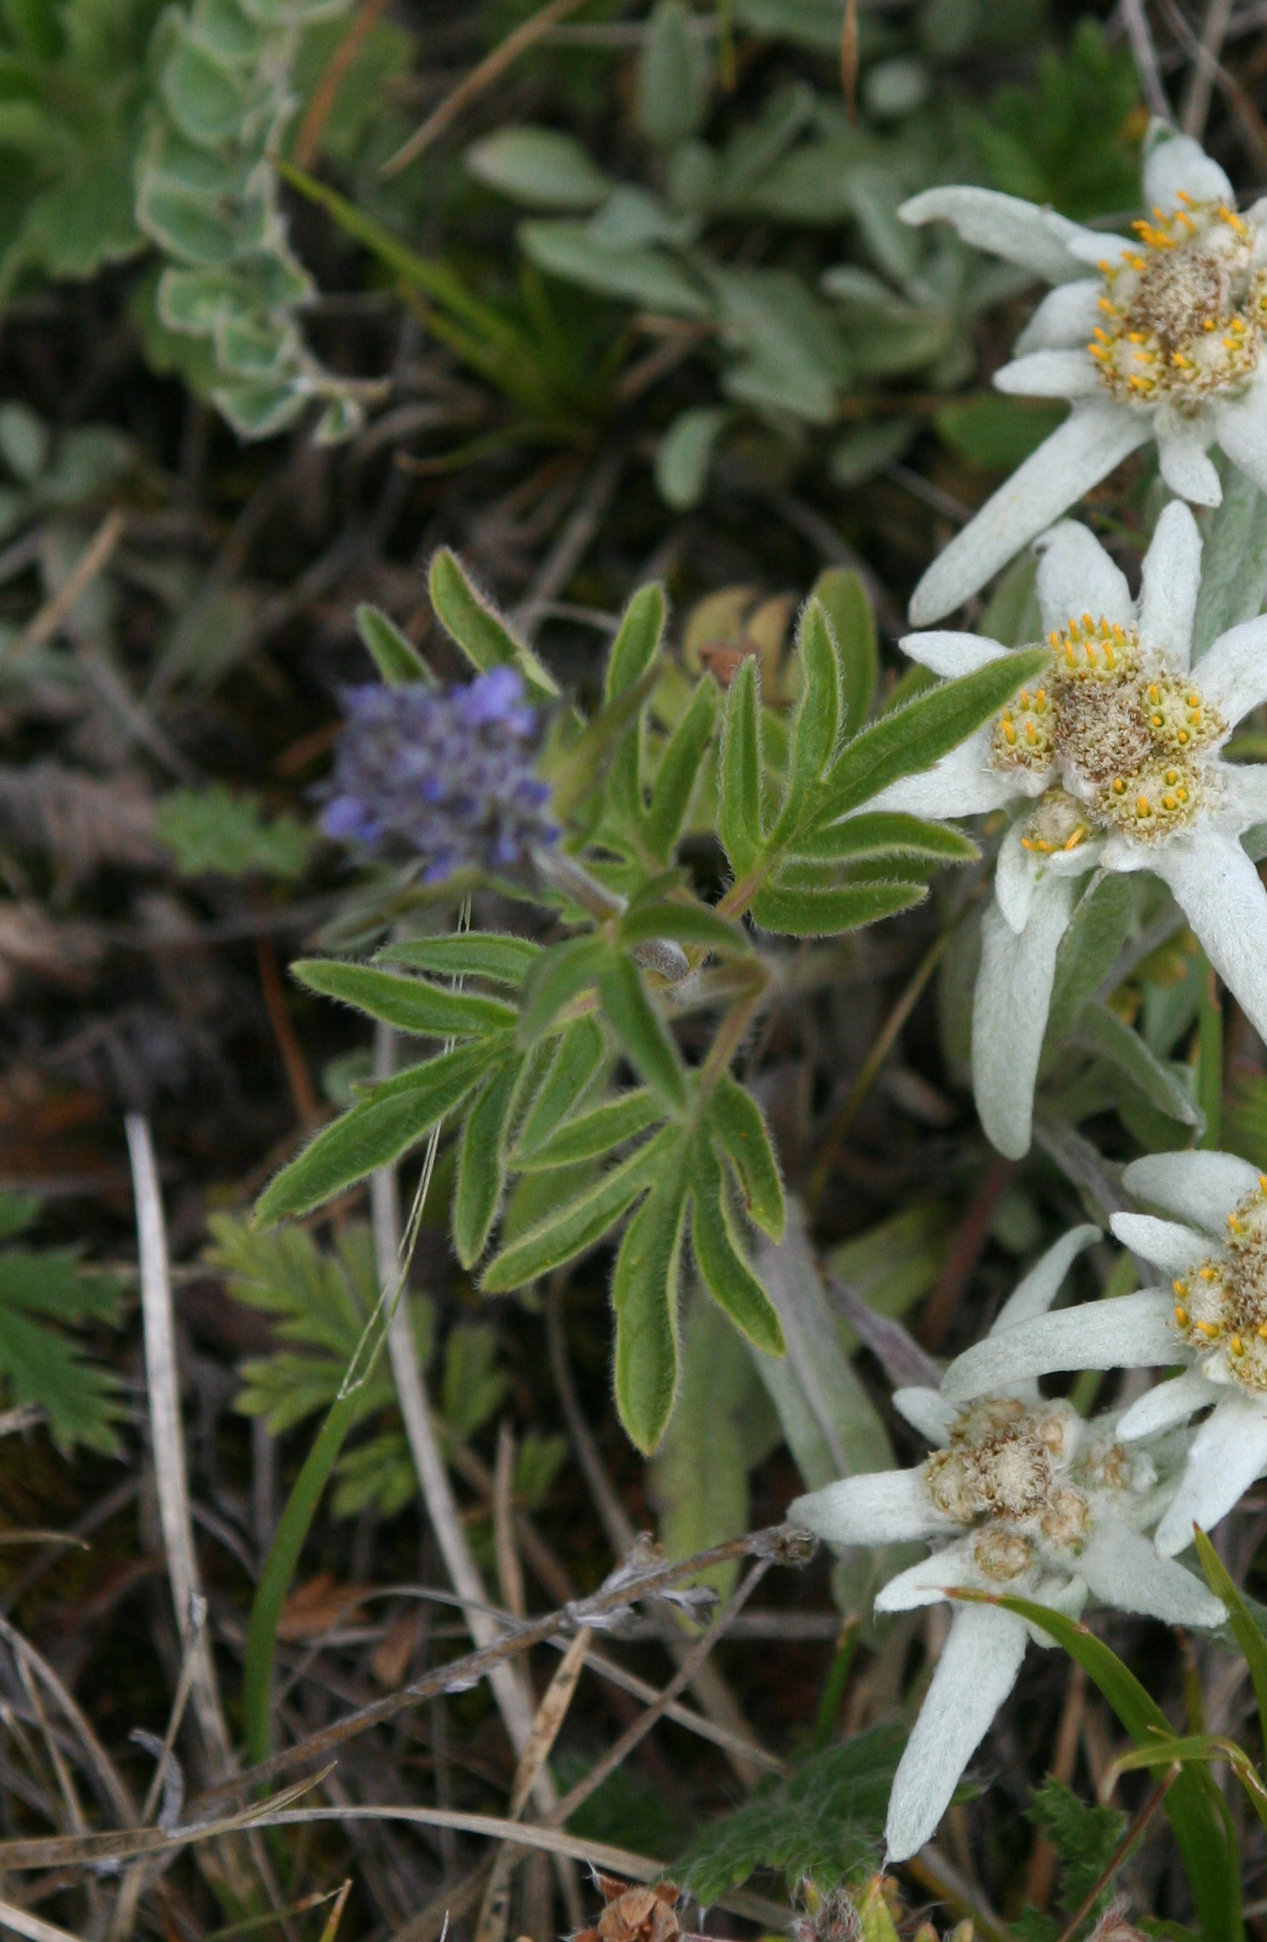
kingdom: Plantae
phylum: Tracheophyta
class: Magnoliopsida
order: Lamiales
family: Lamiaceae
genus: Nepeta
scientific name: Nepeta multifida
